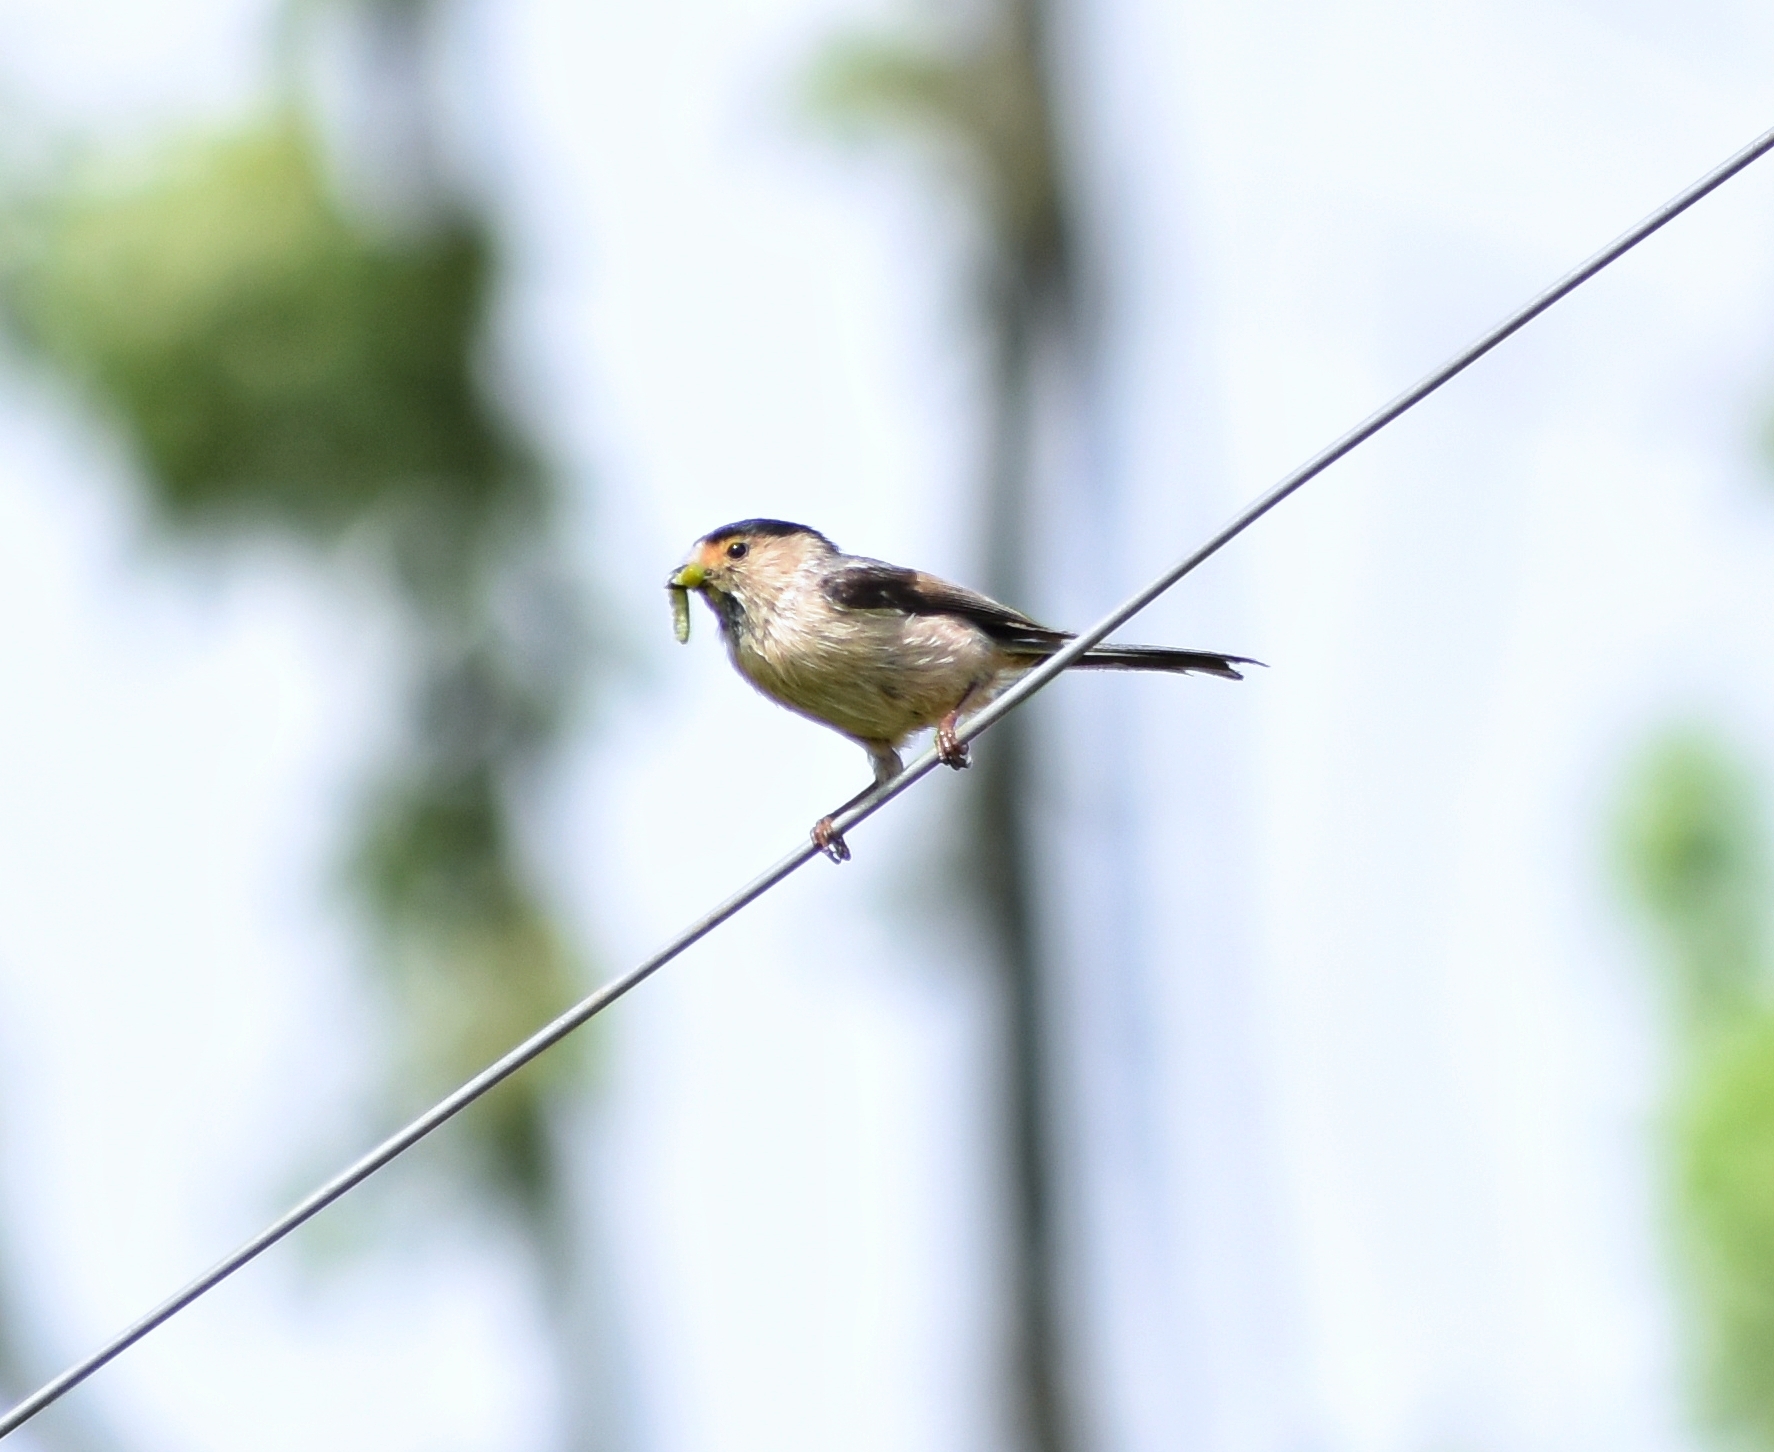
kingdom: Animalia
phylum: Chordata
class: Aves
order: Passeriformes
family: Aegithalidae
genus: Aegithalos
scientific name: Aegithalos glaucogularis
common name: Silver-throated bushtit
